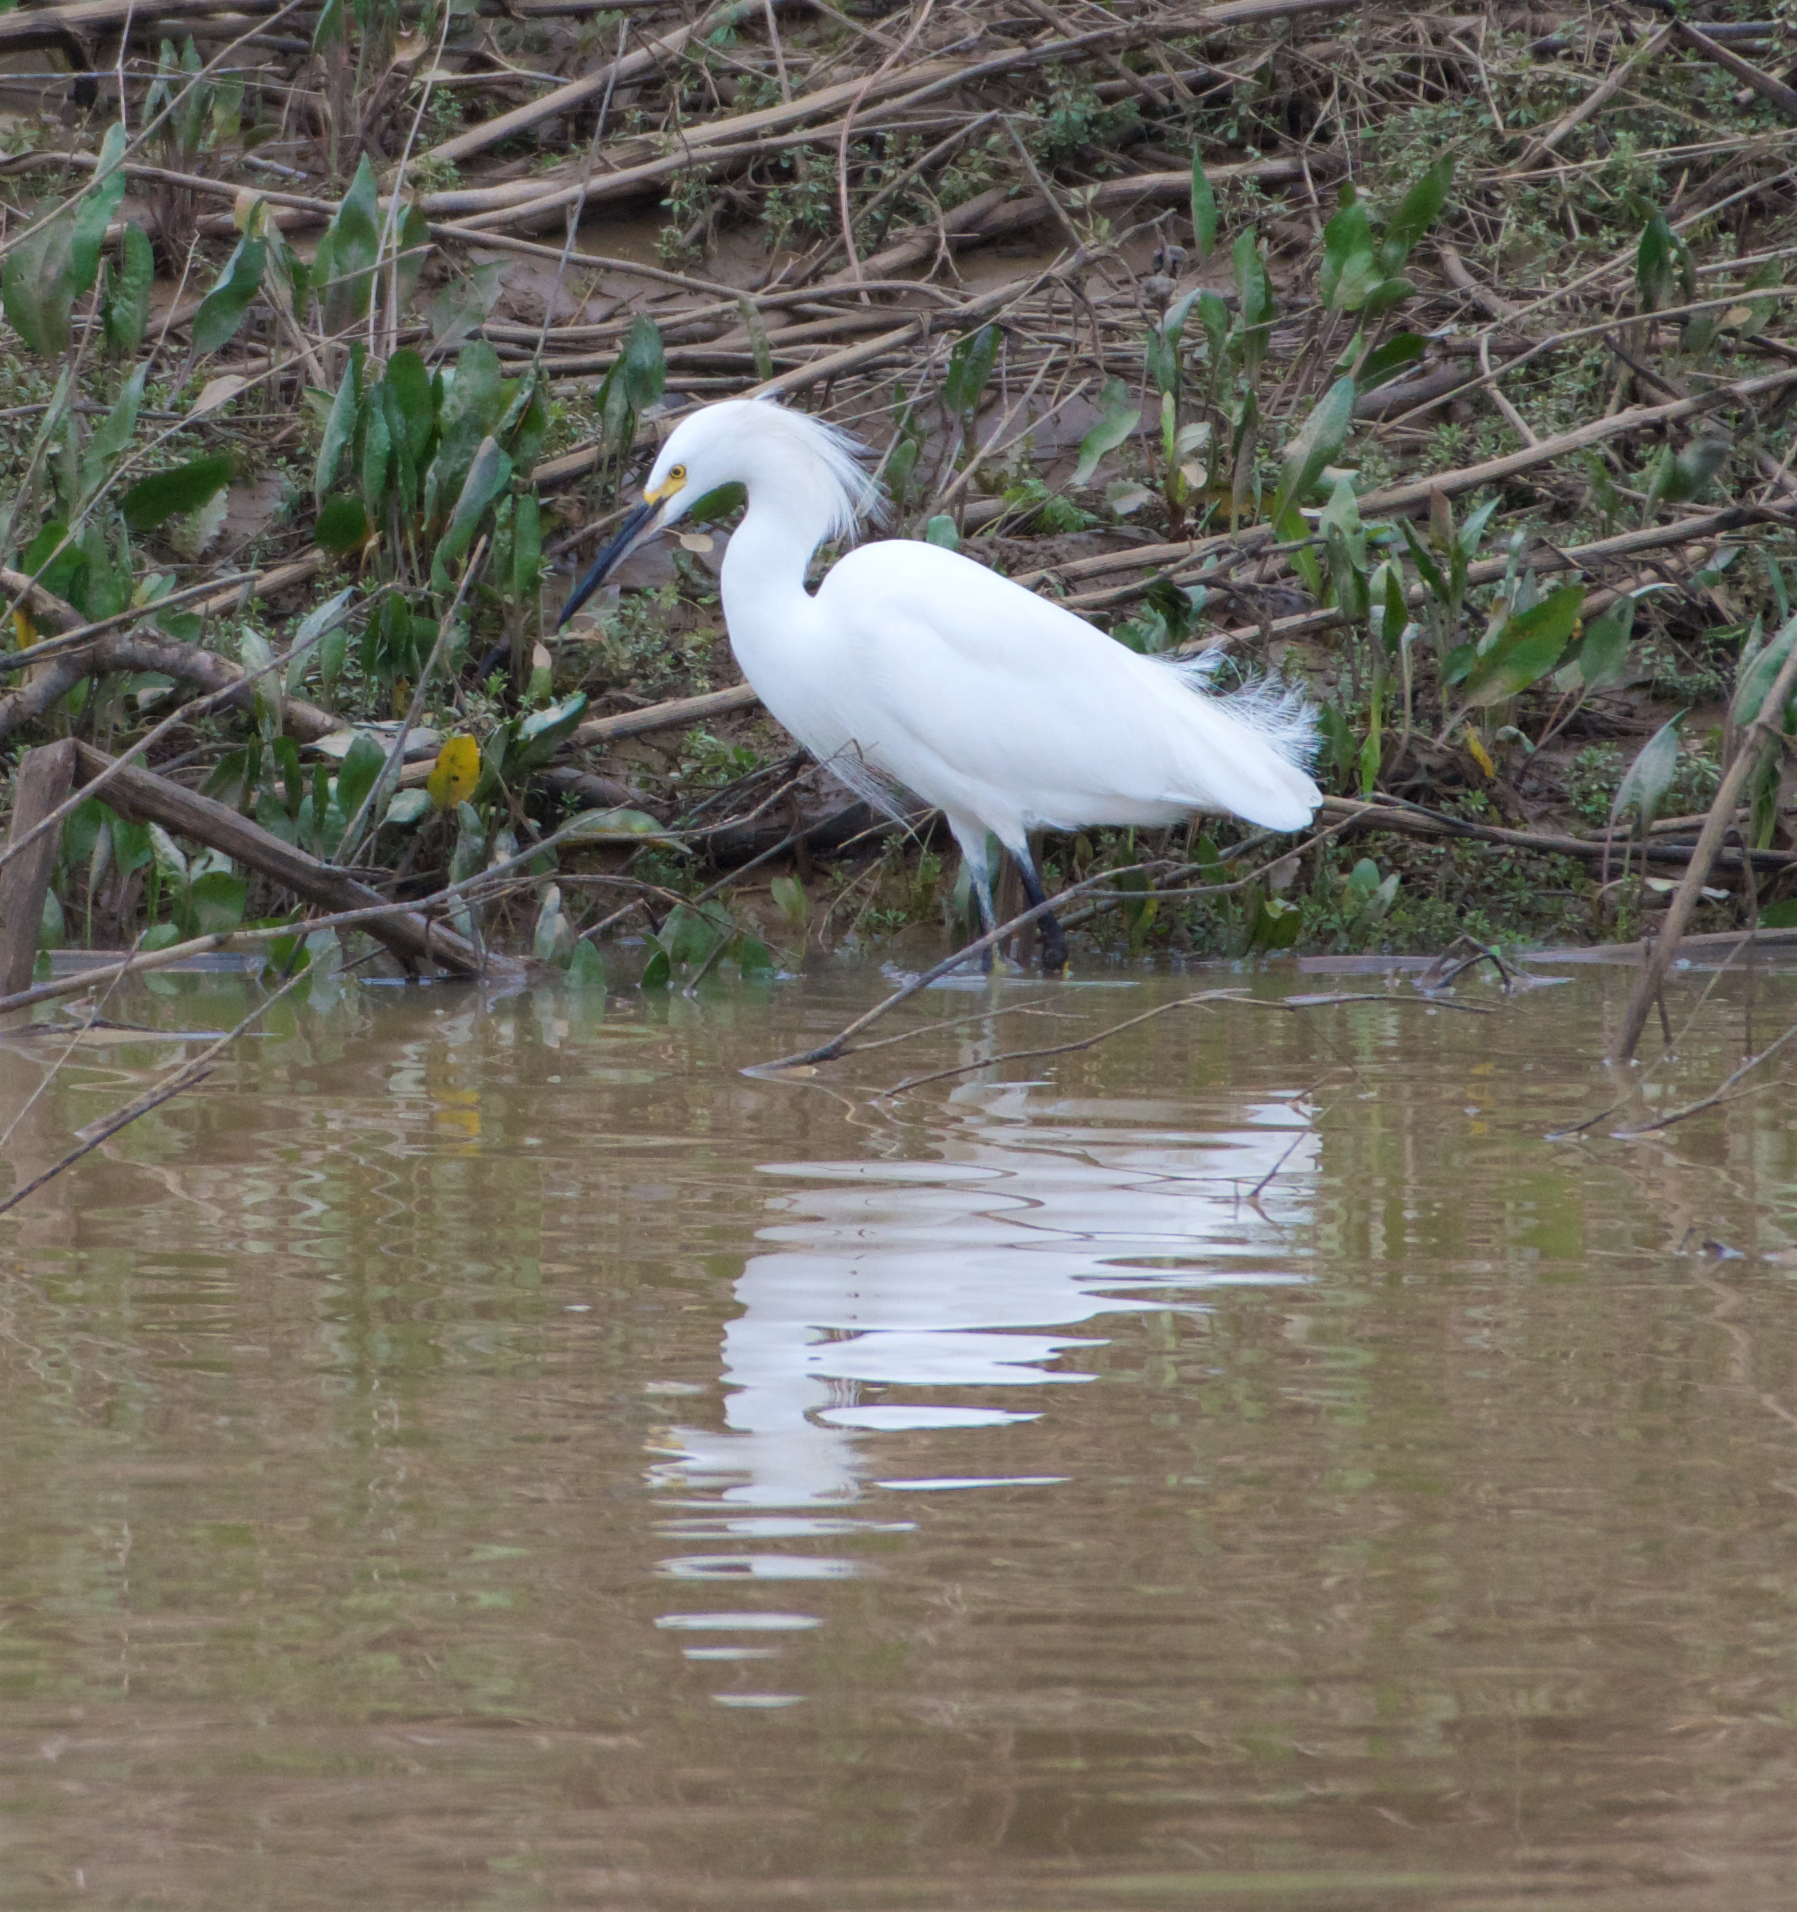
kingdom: Animalia
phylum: Chordata
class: Aves
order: Pelecaniformes
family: Ardeidae
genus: Egretta
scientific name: Egretta thula
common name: Snowy egret
